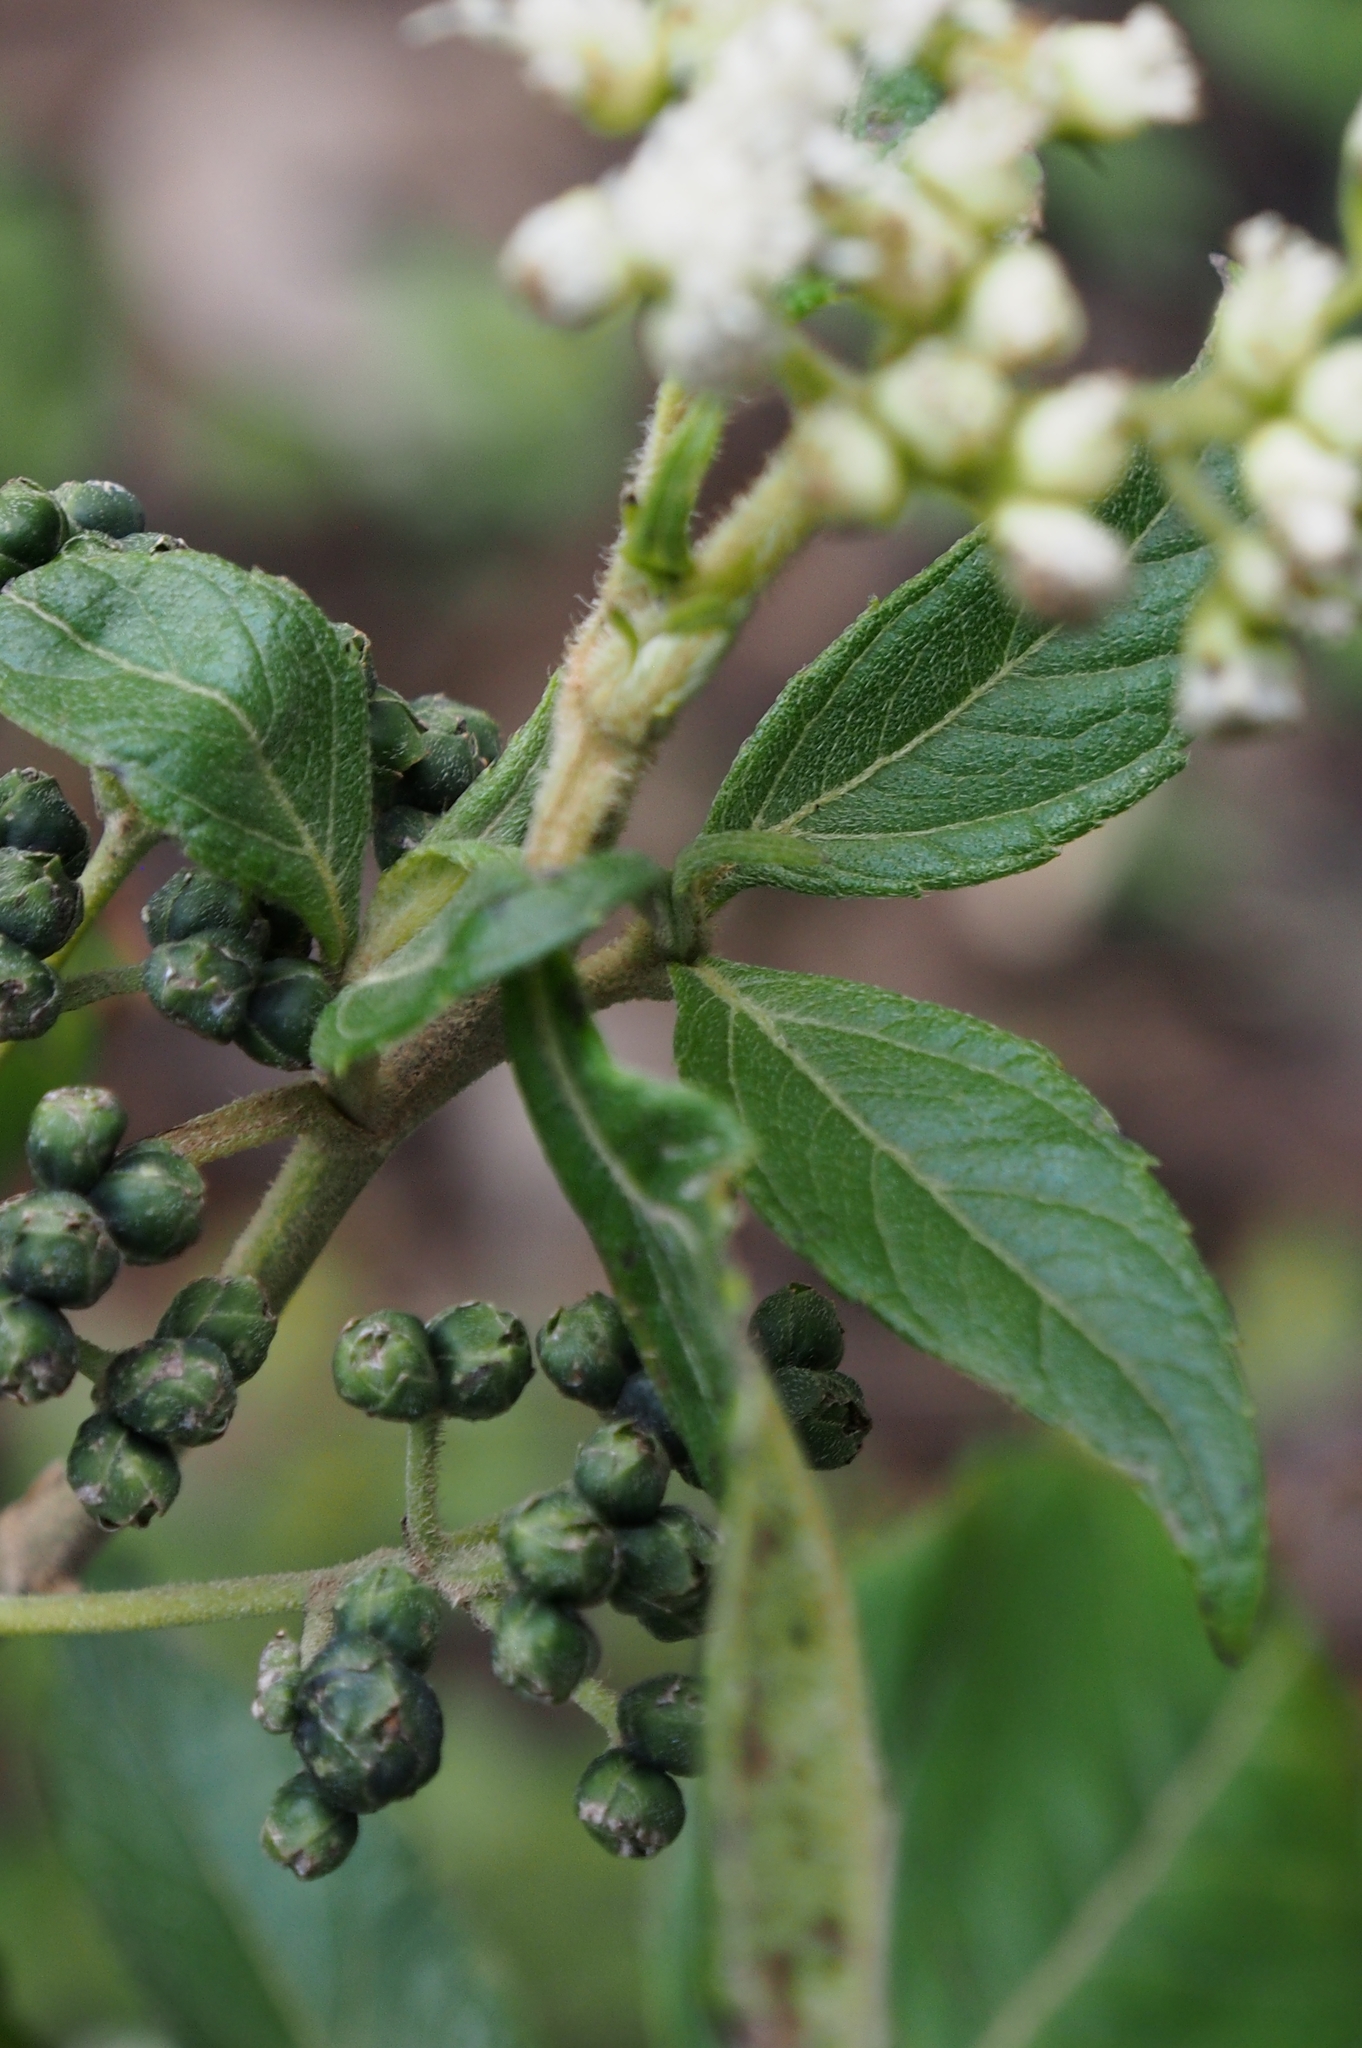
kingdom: Plantae
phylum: Tracheophyta
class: Magnoliopsida
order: Asterales
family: Asteraceae
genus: Clibadium
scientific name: Clibadium leiocarpum
